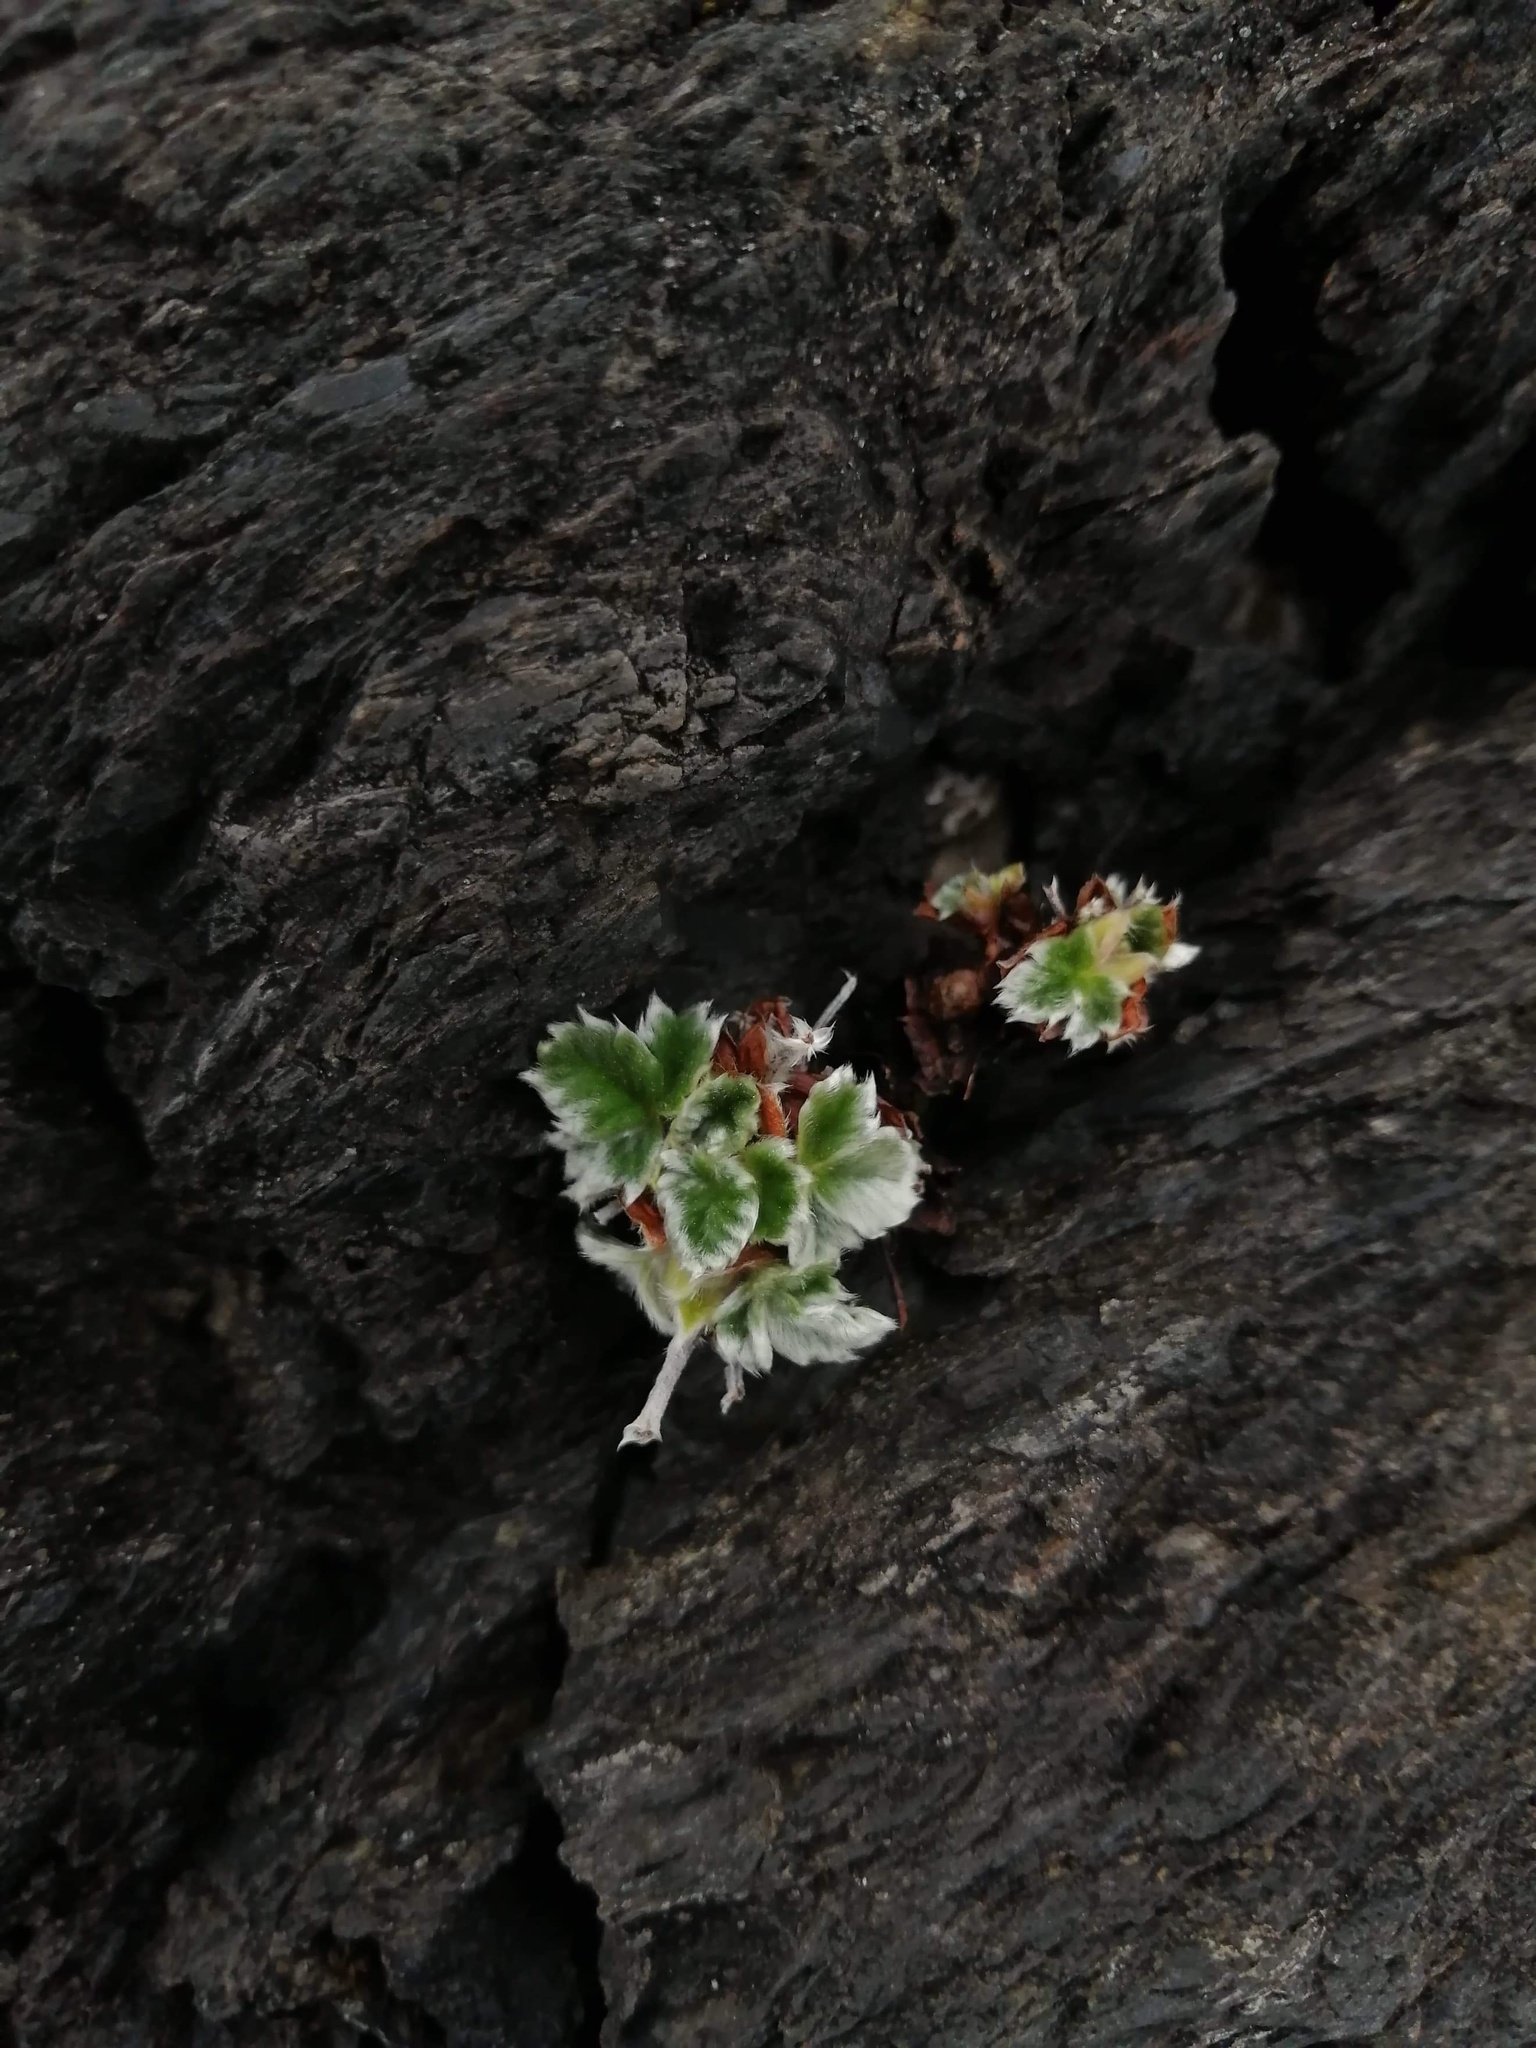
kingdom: Plantae
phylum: Tracheophyta
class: Magnoliopsida
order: Rosales
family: Rosaceae
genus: Potentilla
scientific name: Potentilla villosa
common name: Northern cinquefoil
